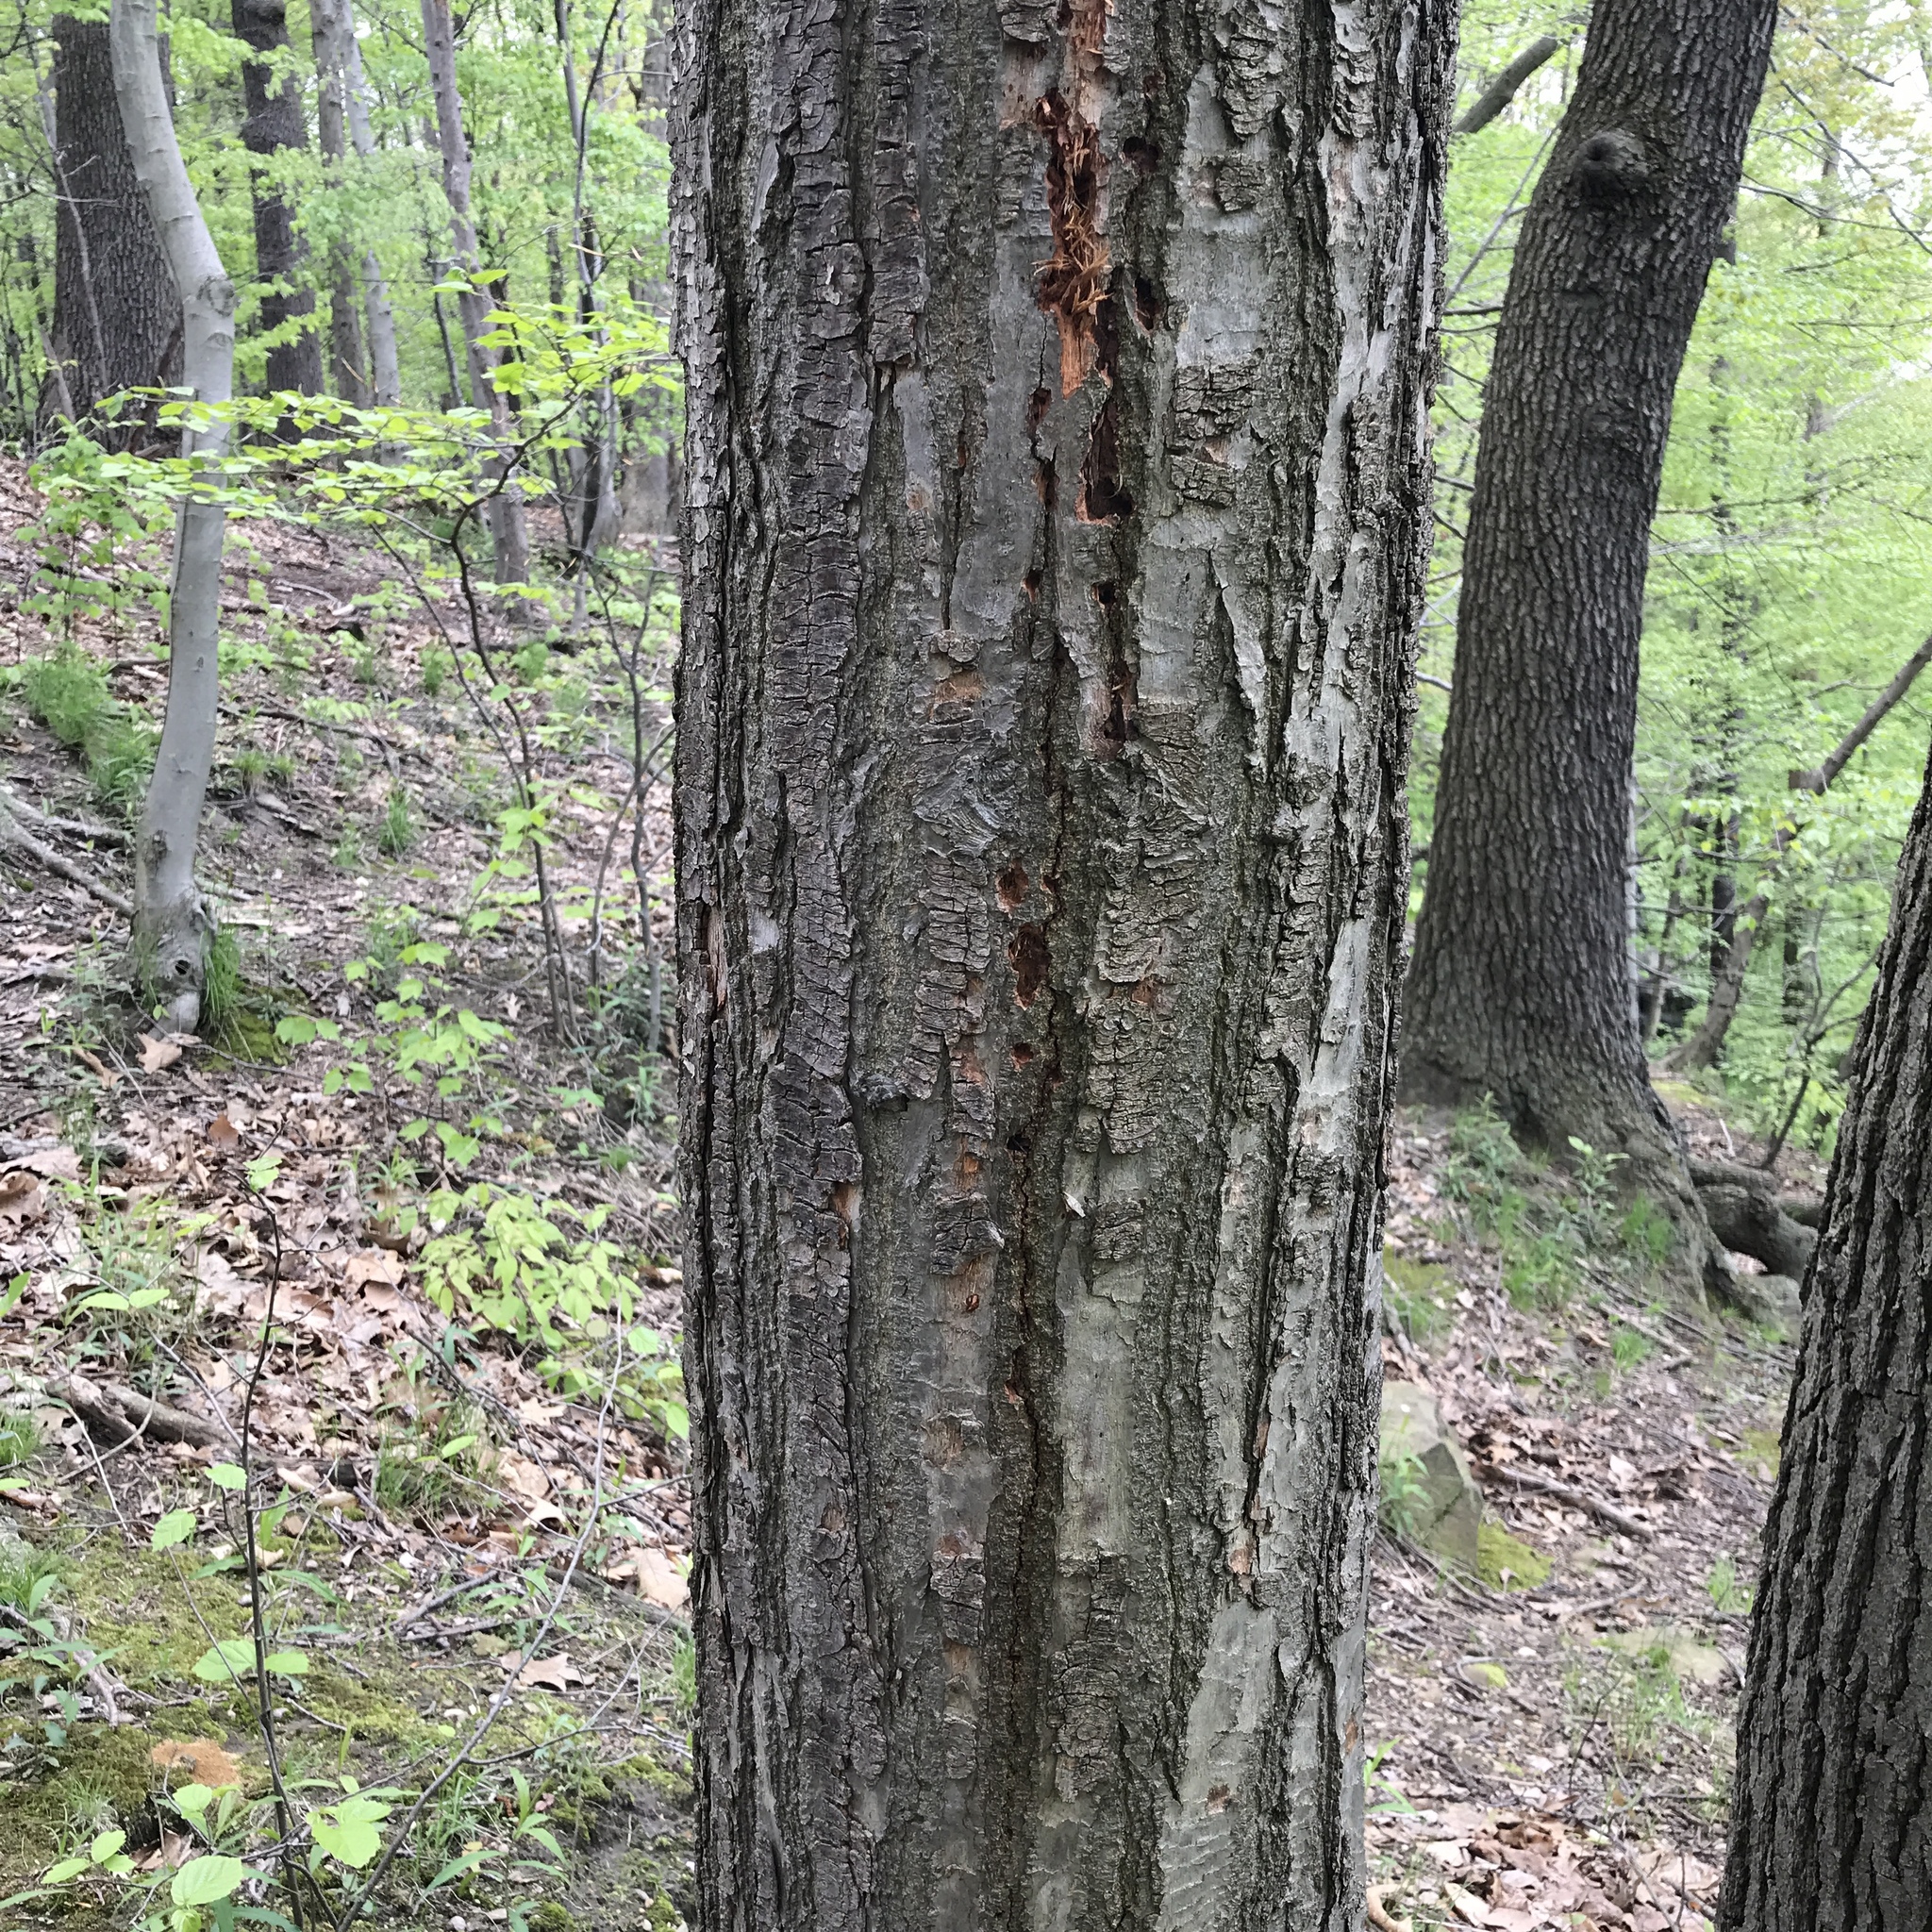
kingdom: Plantae
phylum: Tracheophyta
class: Magnoliopsida
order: Fagales
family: Fagaceae
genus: Castanea
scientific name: Castanea dentata
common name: American chestnut
